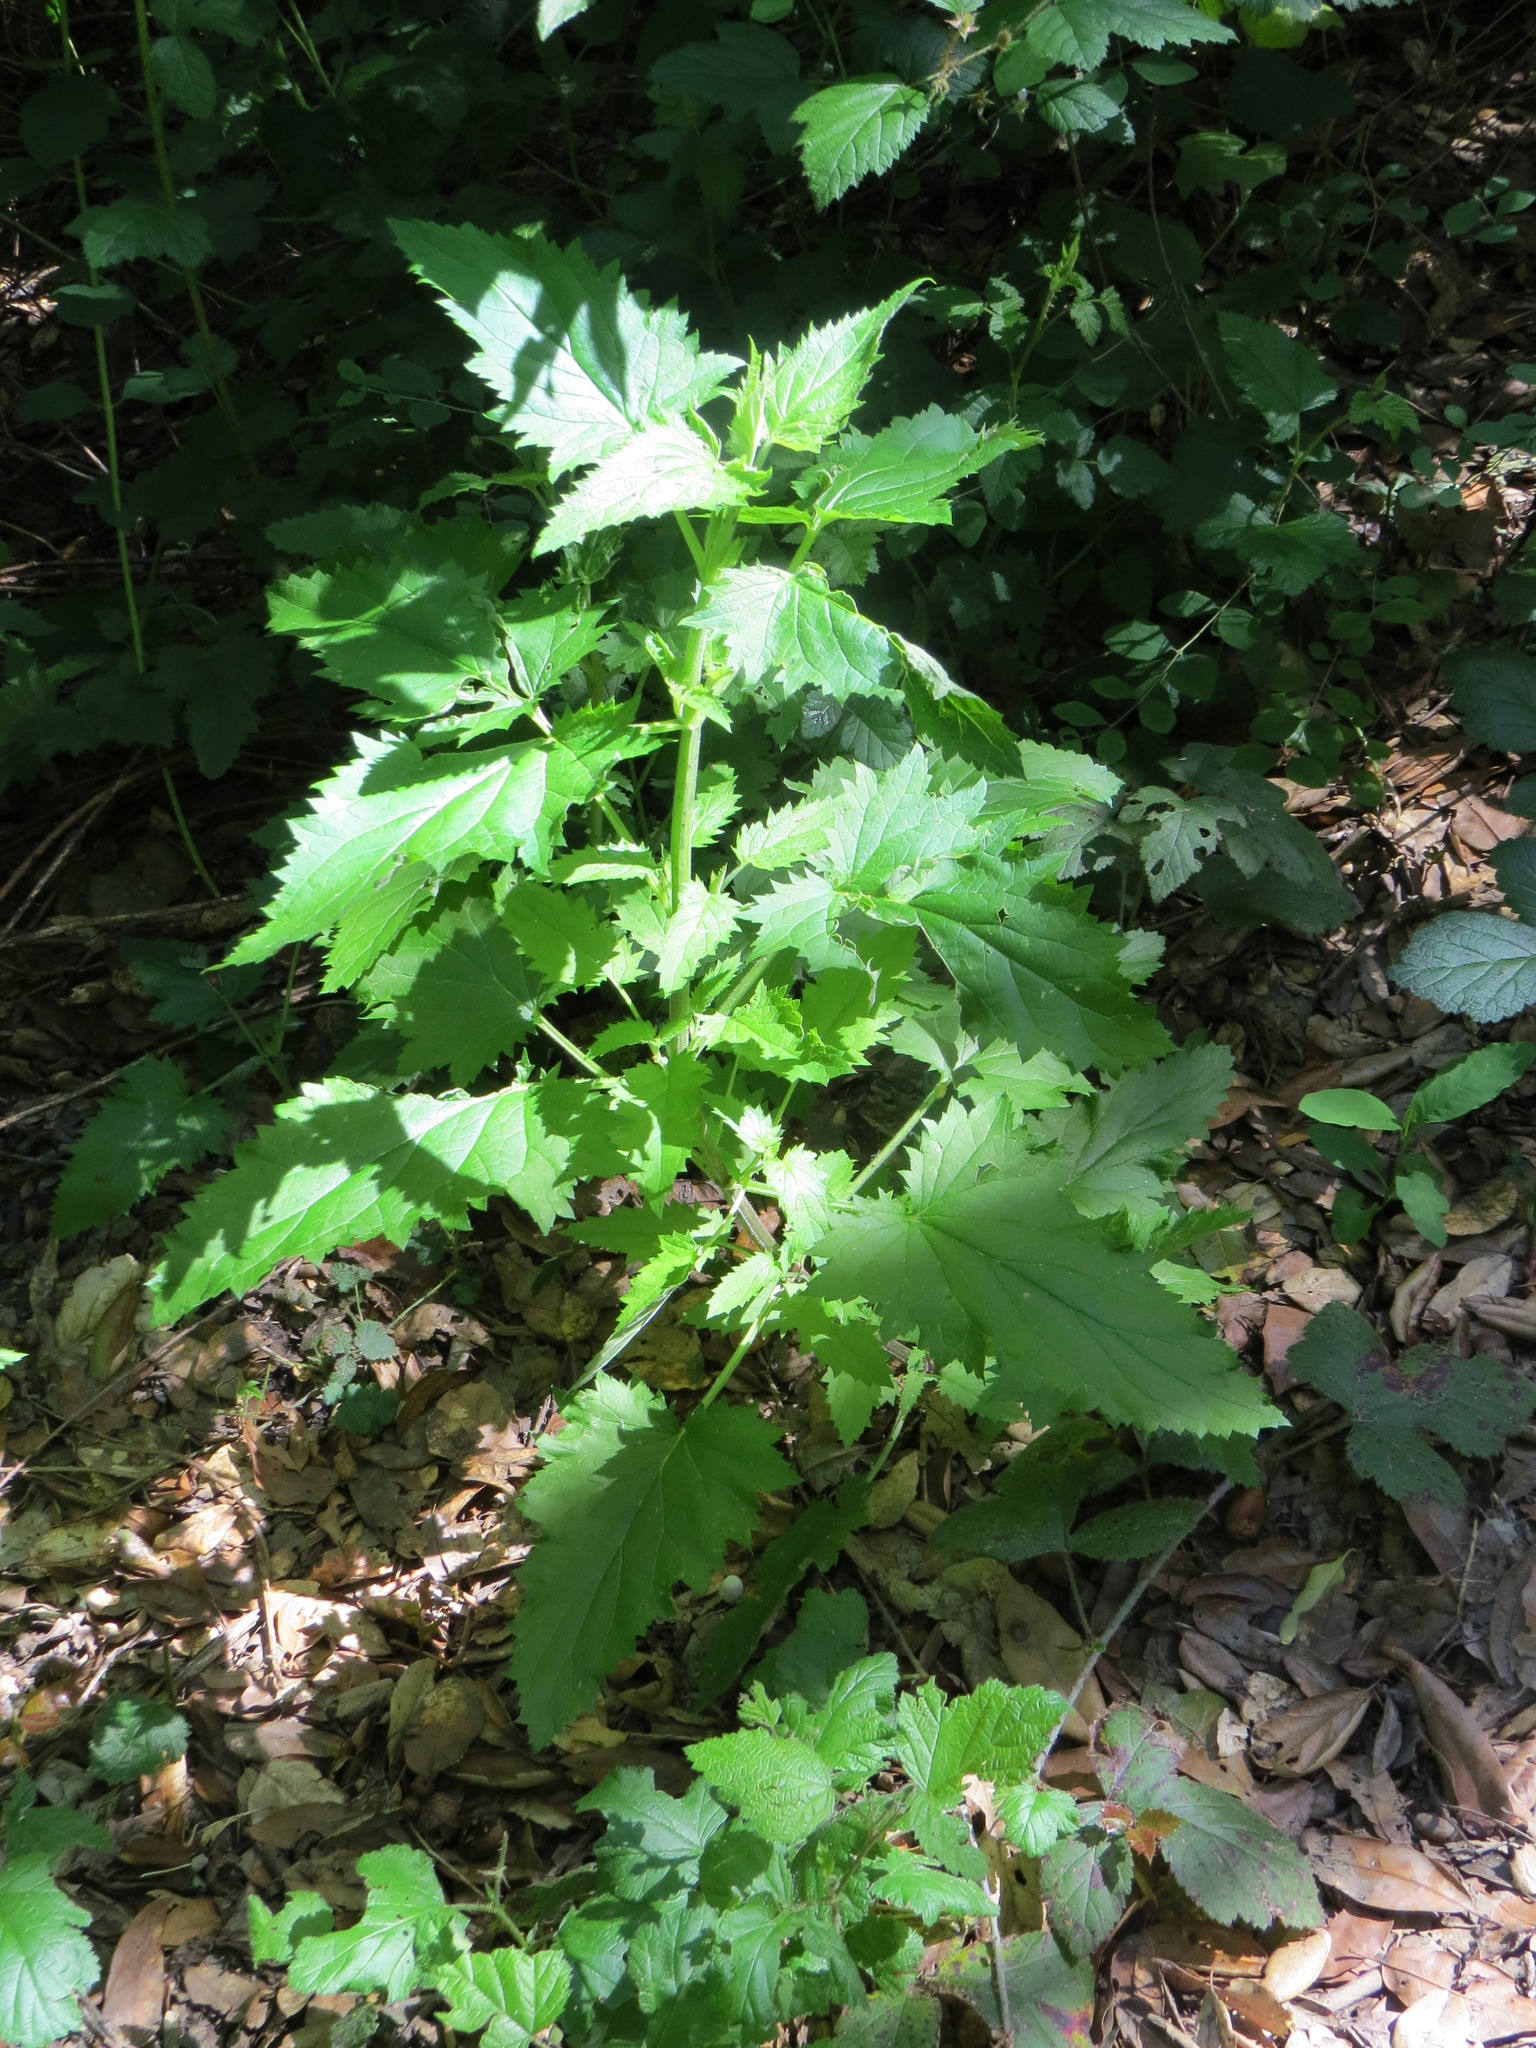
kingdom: Plantae
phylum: Tracheophyta
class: Magnoliopsida
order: Lamiales
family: Scrophulariaceae
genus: Scrophularia
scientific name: Scrophularia californica
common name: California figwort
